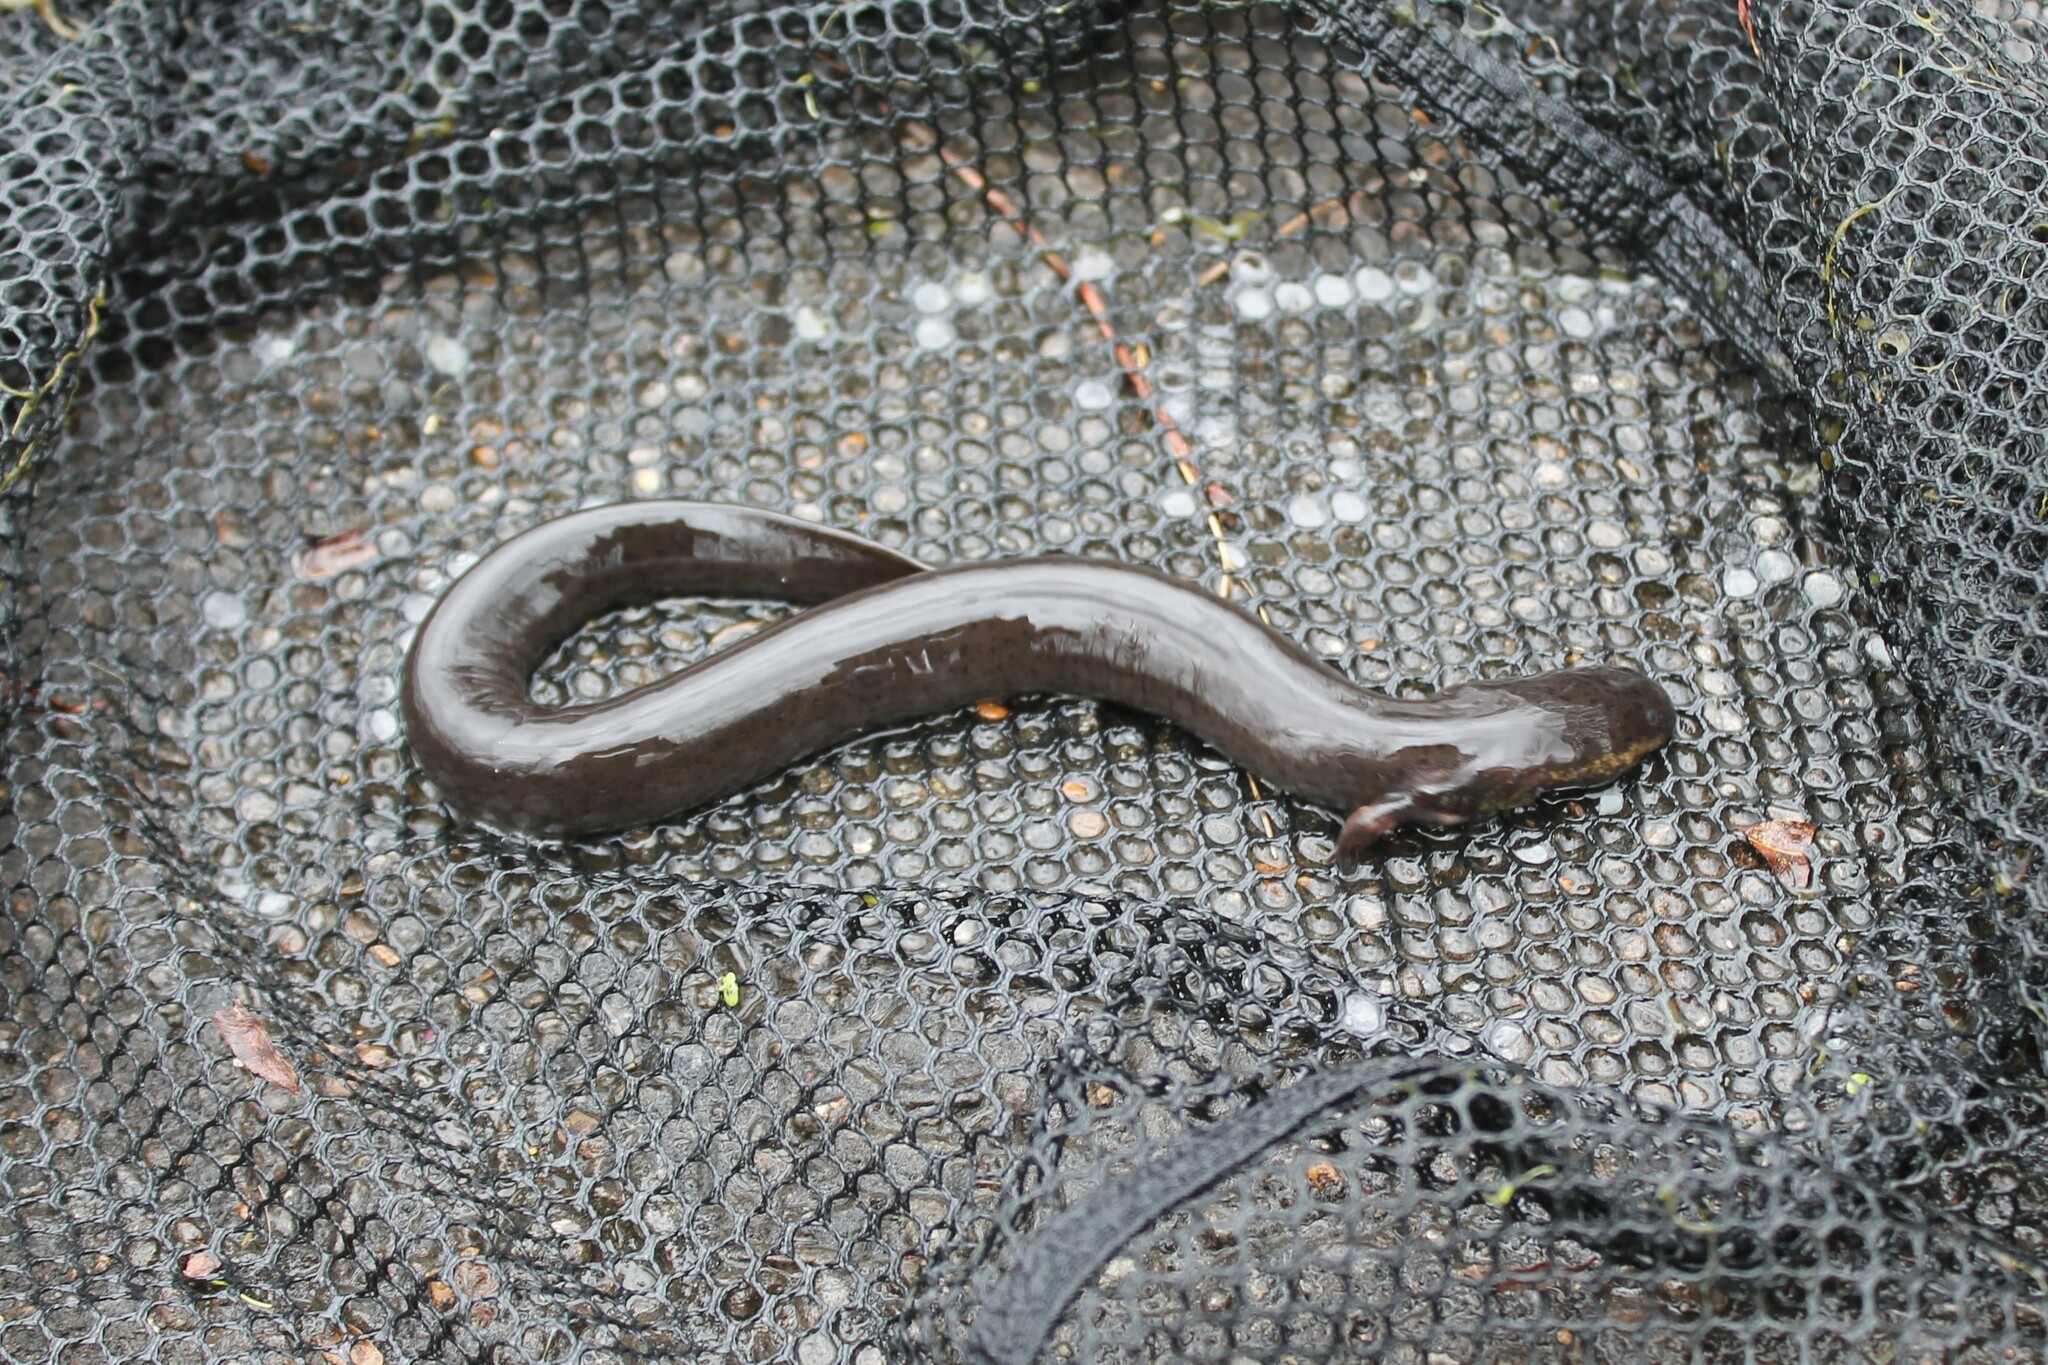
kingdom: Animalia
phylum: Chordata
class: Amphibia
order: Caudata
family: Sirenidae
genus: Siren
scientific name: Siren intermedia
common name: Lesser siren
